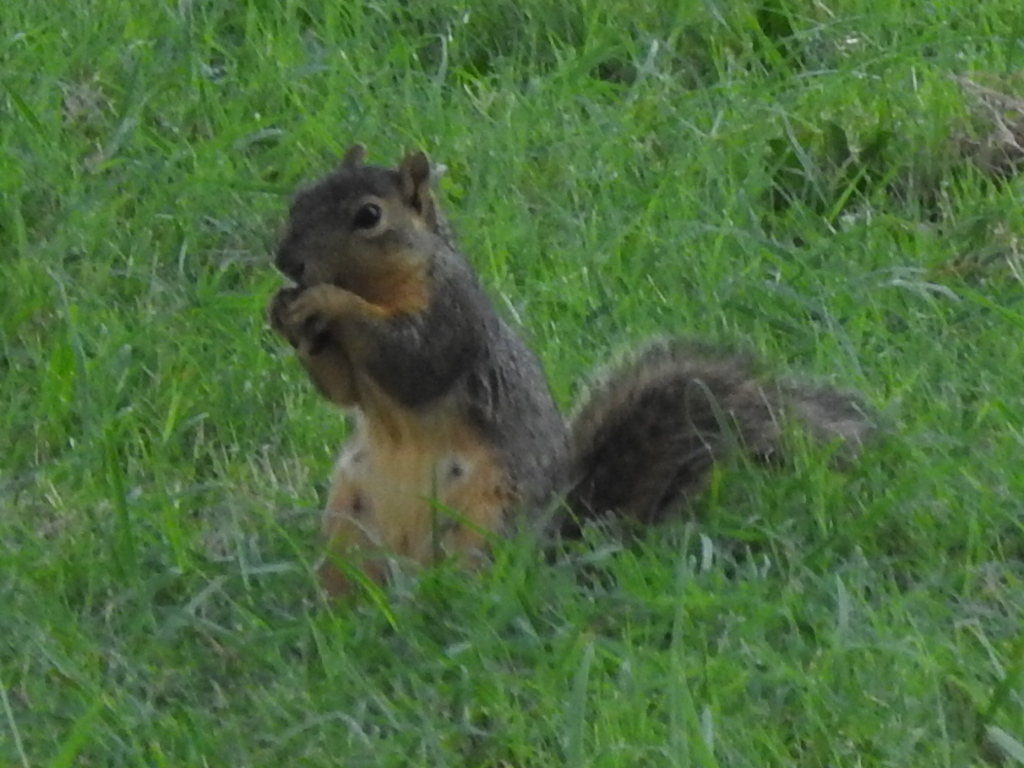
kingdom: Animalia
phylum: Chordata
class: Mammalia
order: Rodentia
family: Sciuridae
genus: Sciurus
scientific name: Sciurus niger
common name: Fox squirrel
